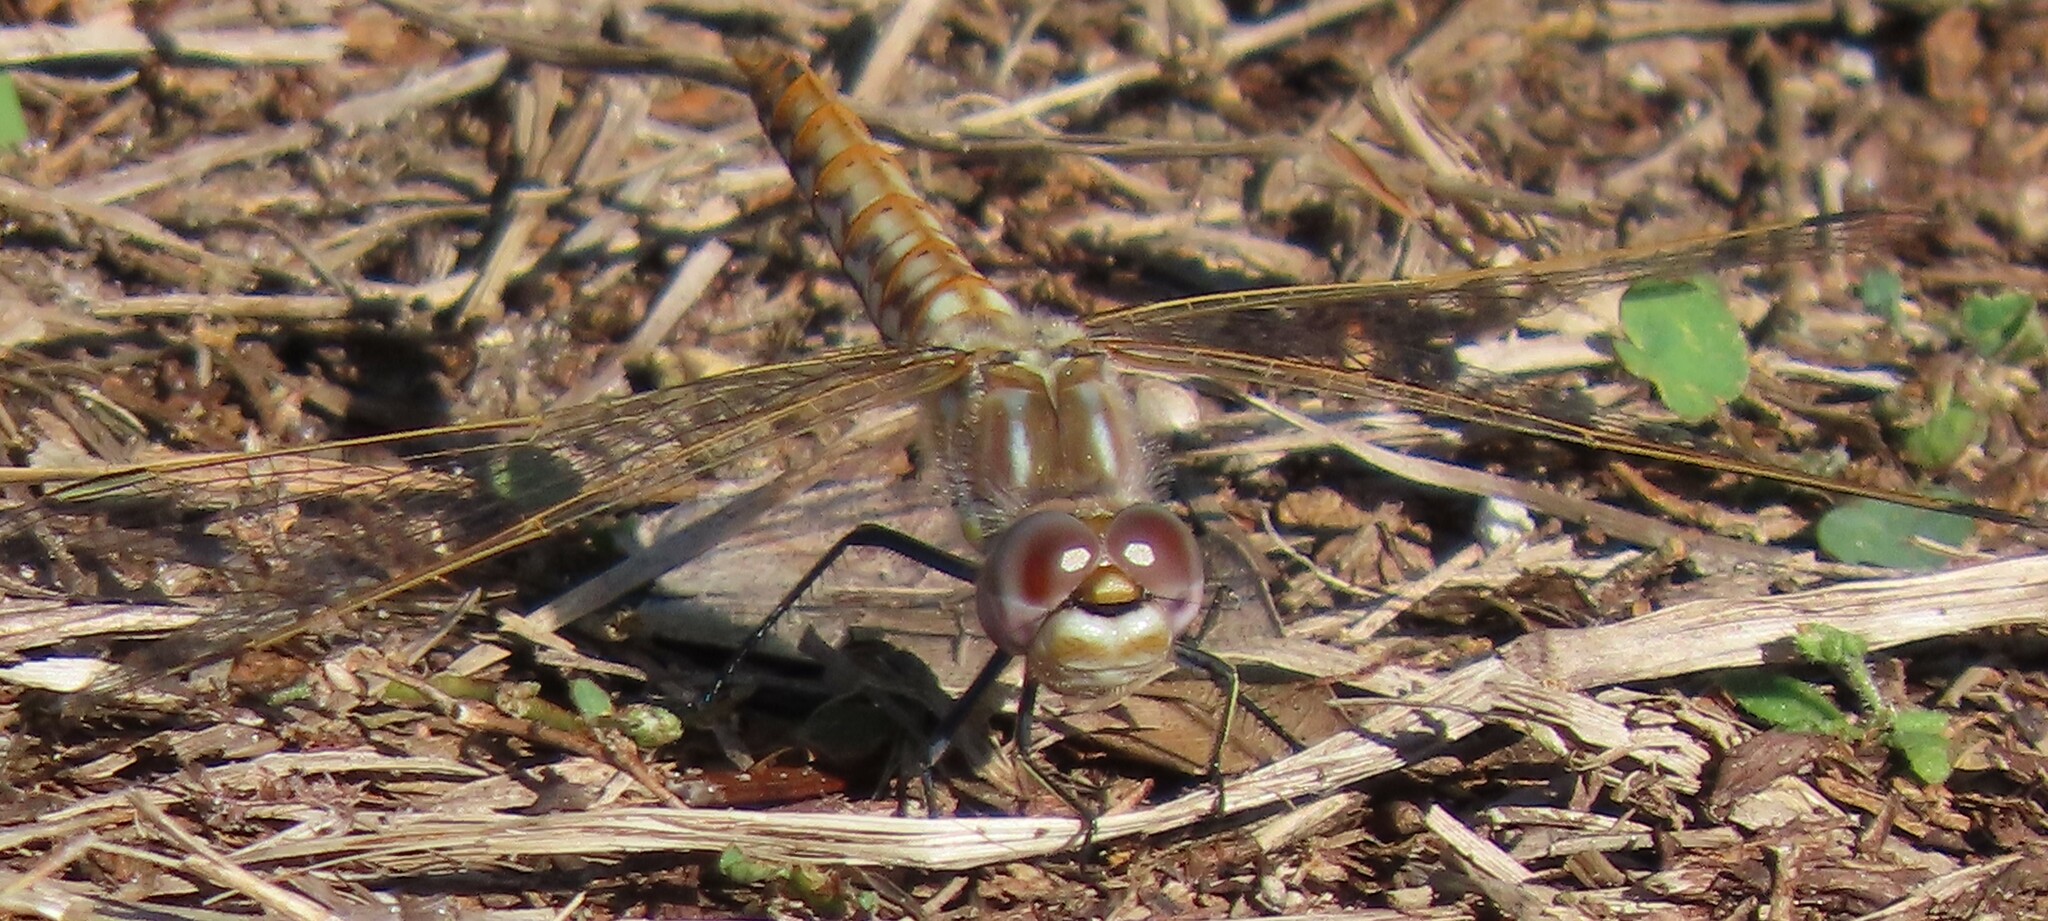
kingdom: Animalia
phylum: Arthropoda
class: Insecta
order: Odonata
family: Libellulidae
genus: Sympetrum
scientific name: Sympetrum corruptum
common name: Variegated meadowhawk
